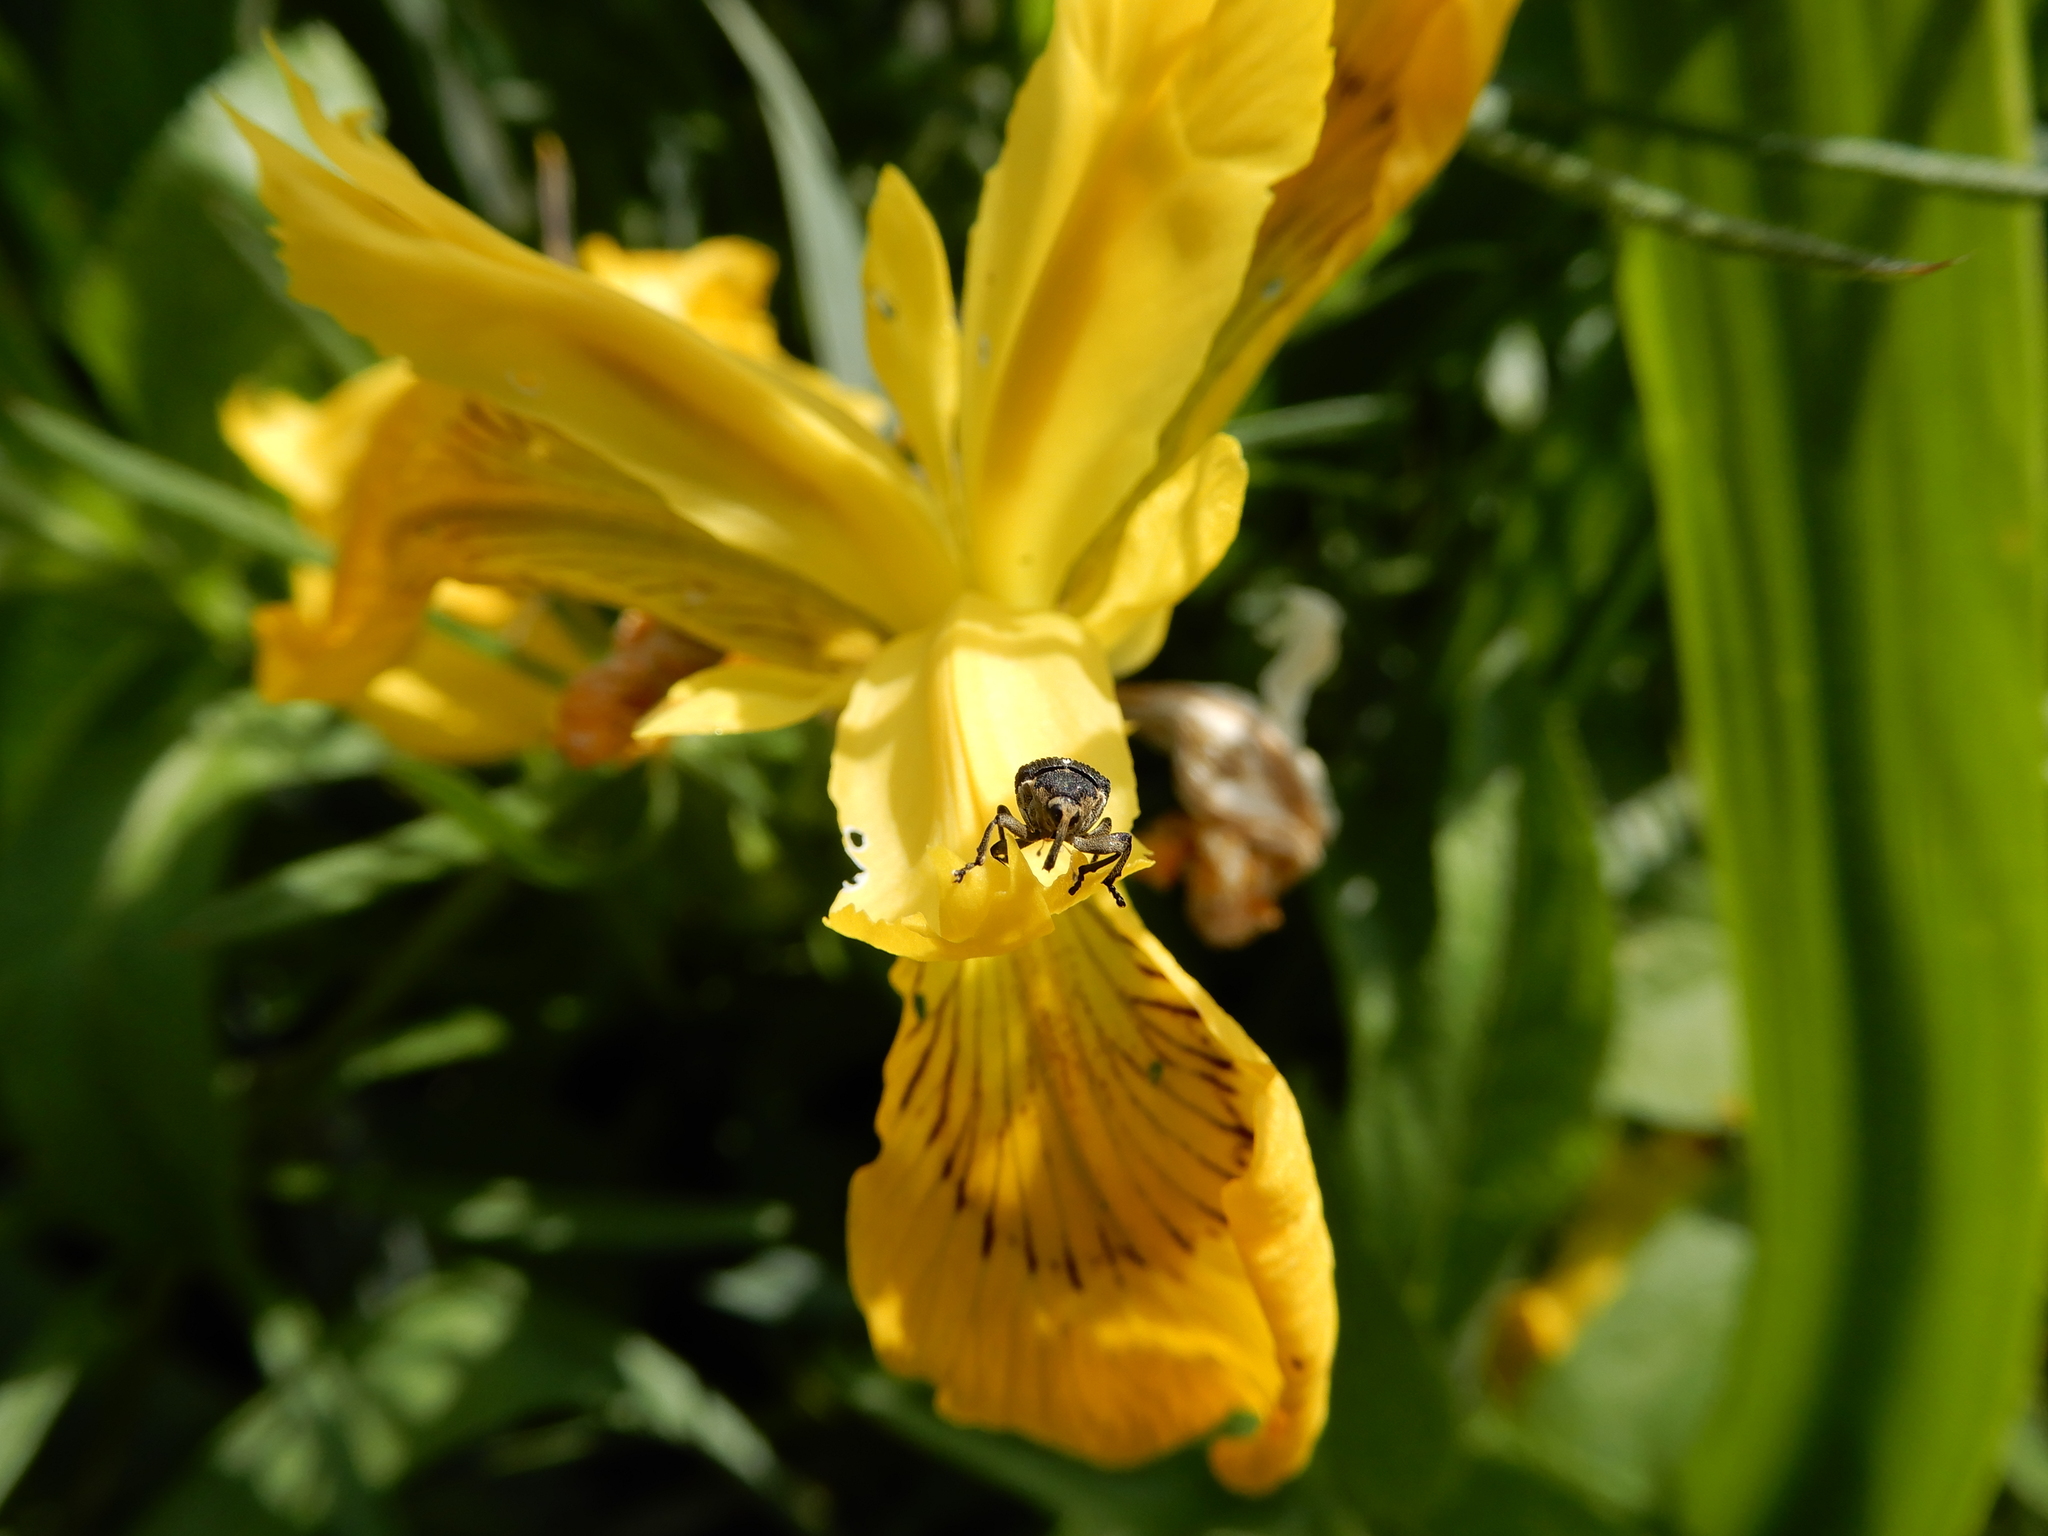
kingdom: Plantae
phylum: Tracheophyta
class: Liliopsida
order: Asparagales
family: Iridaceae
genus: Iris
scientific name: Iris pseudacorus
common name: Yellow flag
